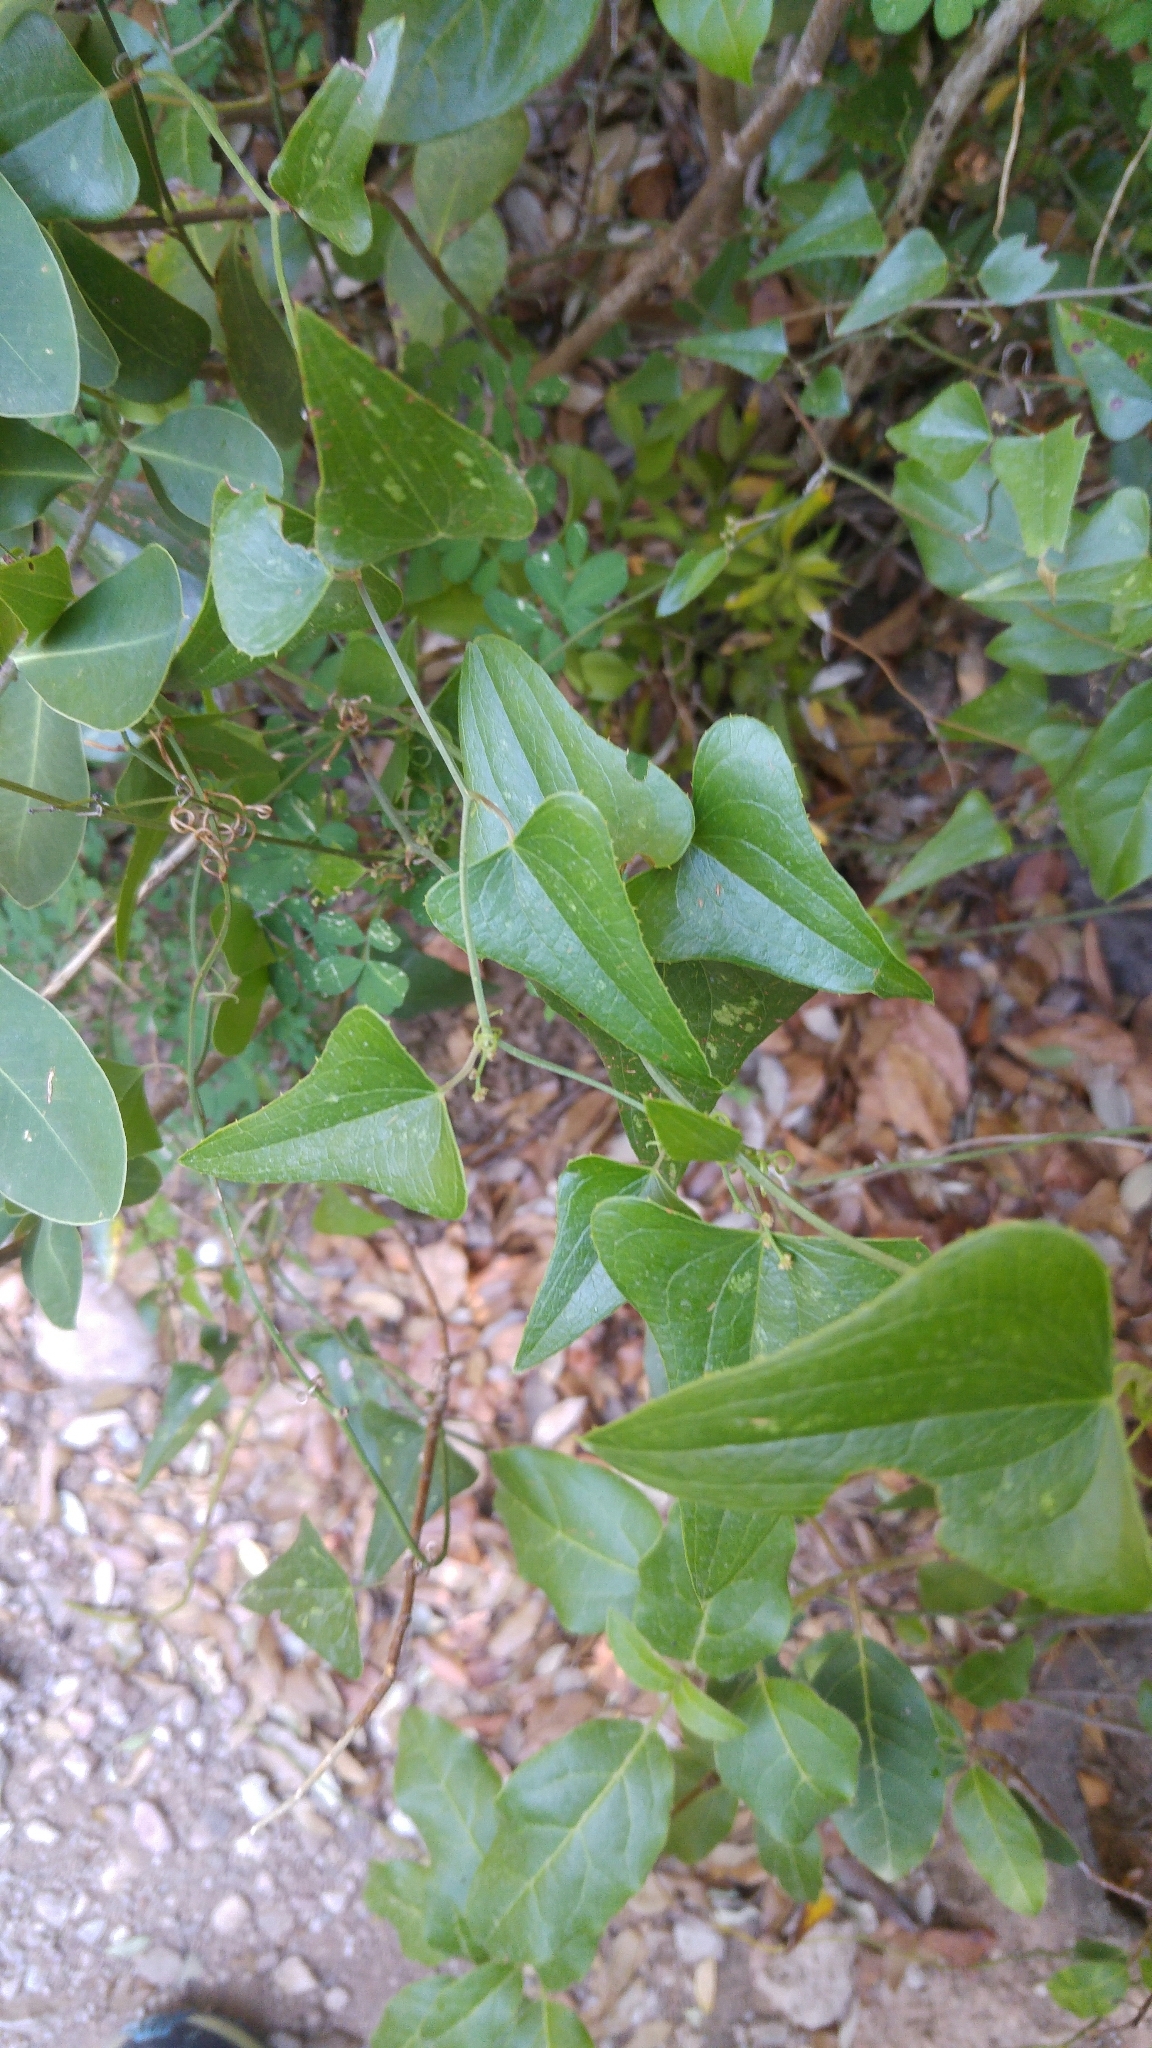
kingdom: Plantae
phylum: Tracheophyta
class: Liliopsida
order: Liliales
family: Smilacaceae
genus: Smilax
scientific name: Smilax aspera
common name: Common smilax
